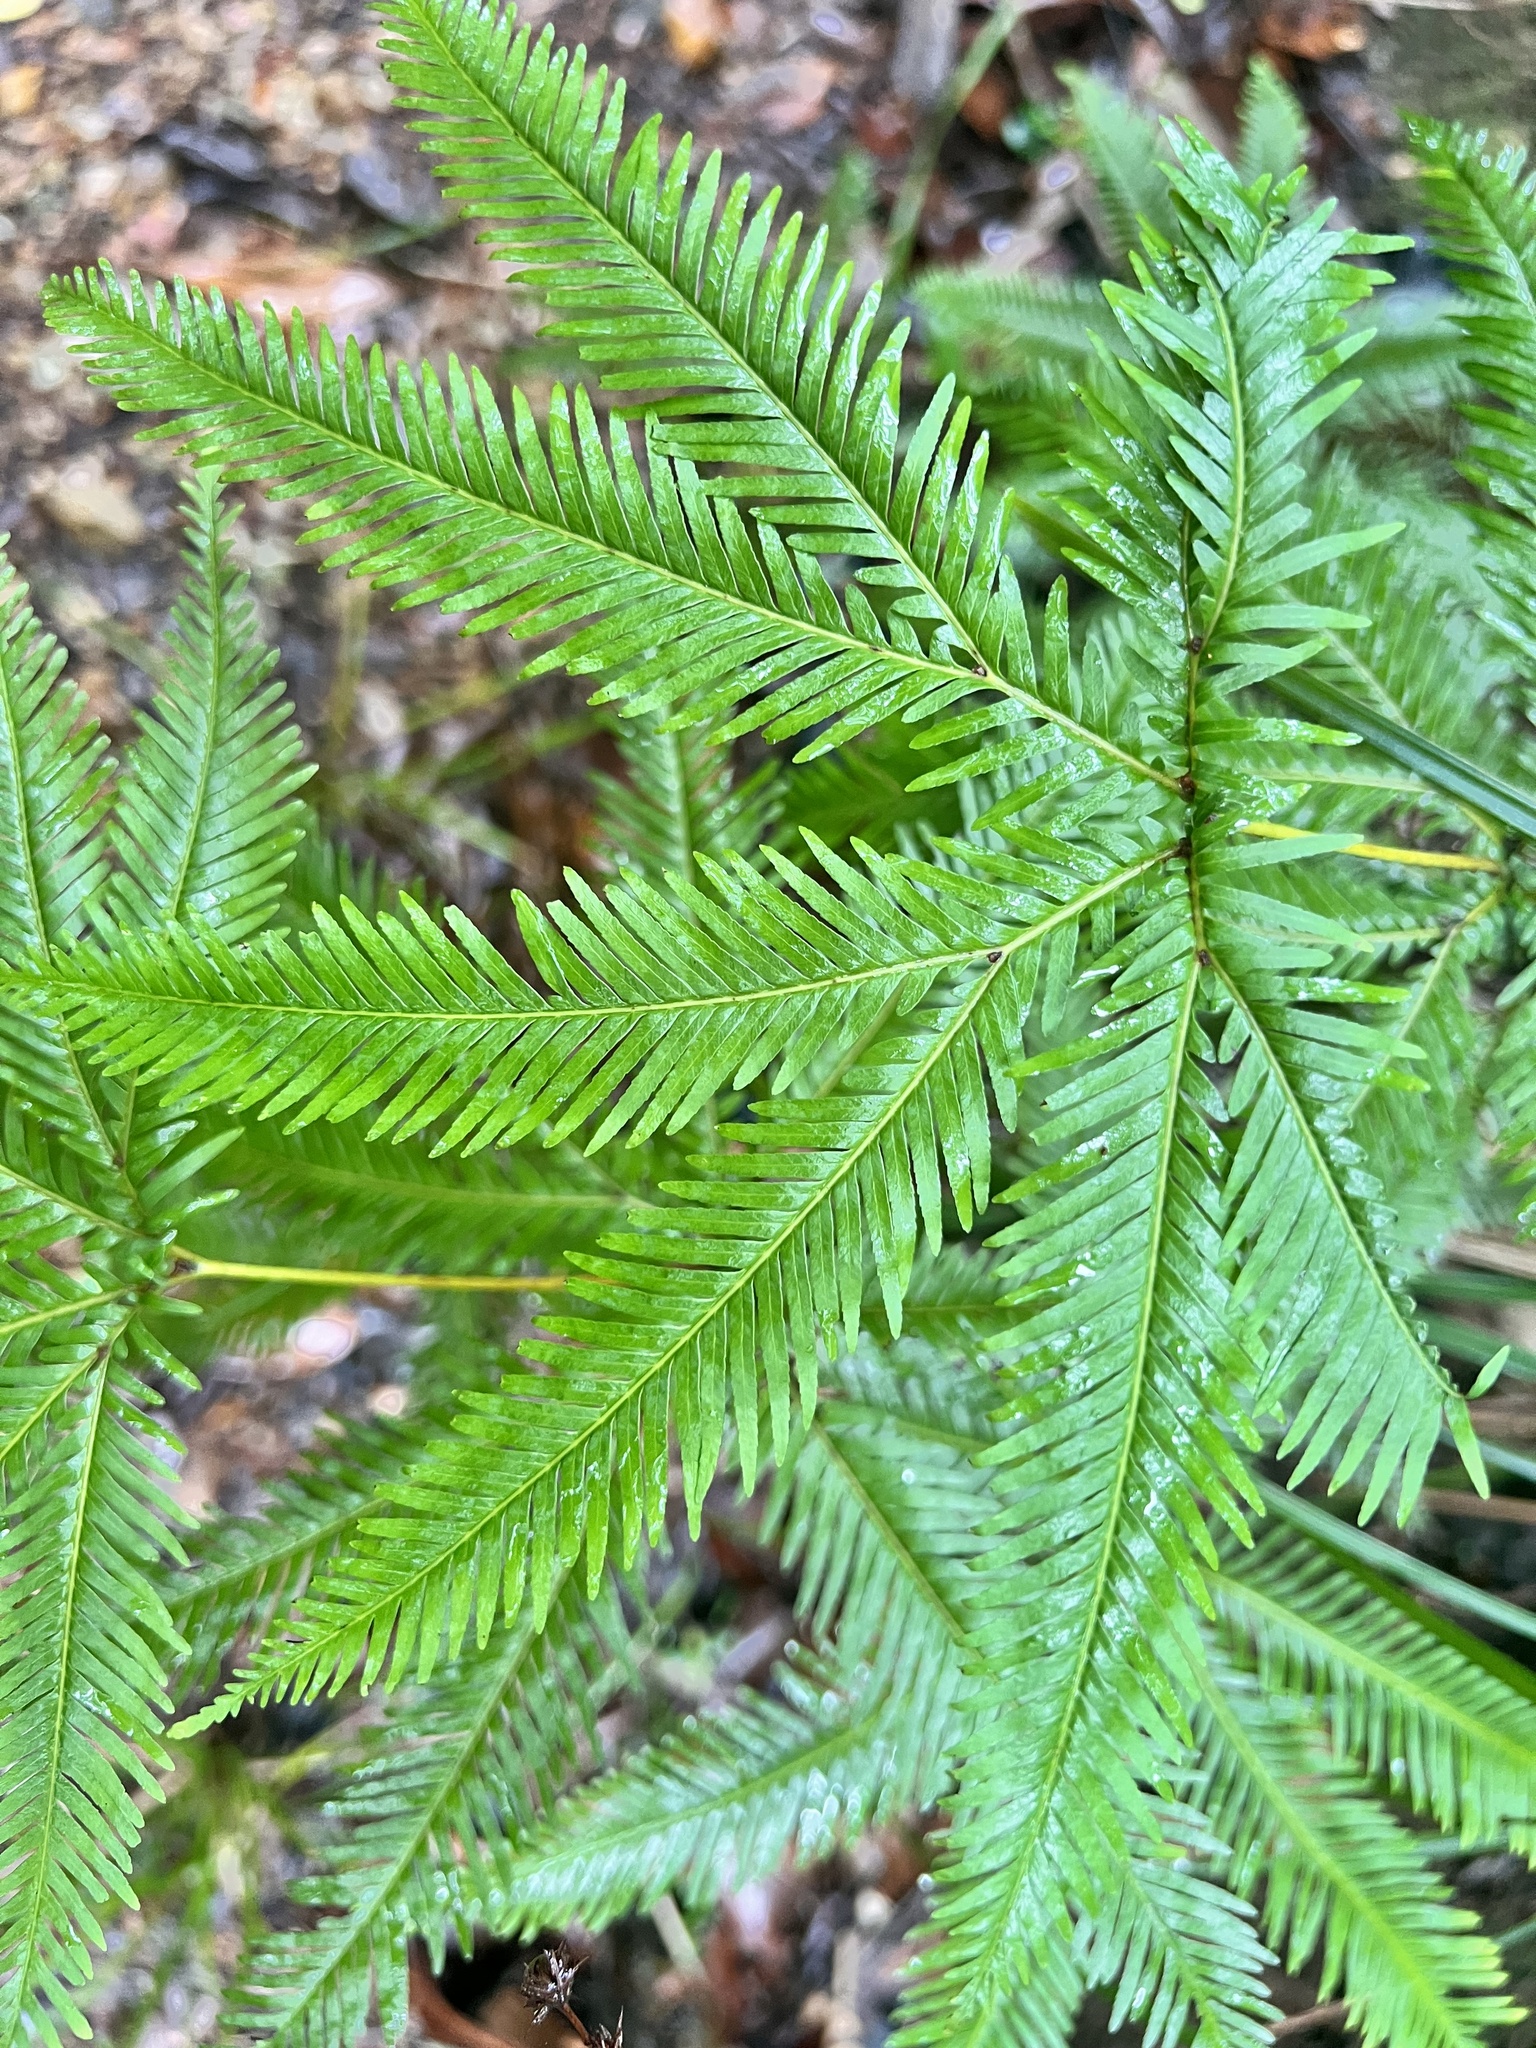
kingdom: Plantae
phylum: Tracheophyta
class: Polypodiopsida
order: Gleicheniales
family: Gleicheniaceae
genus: Sticherus
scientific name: Sticherus flabellatus
